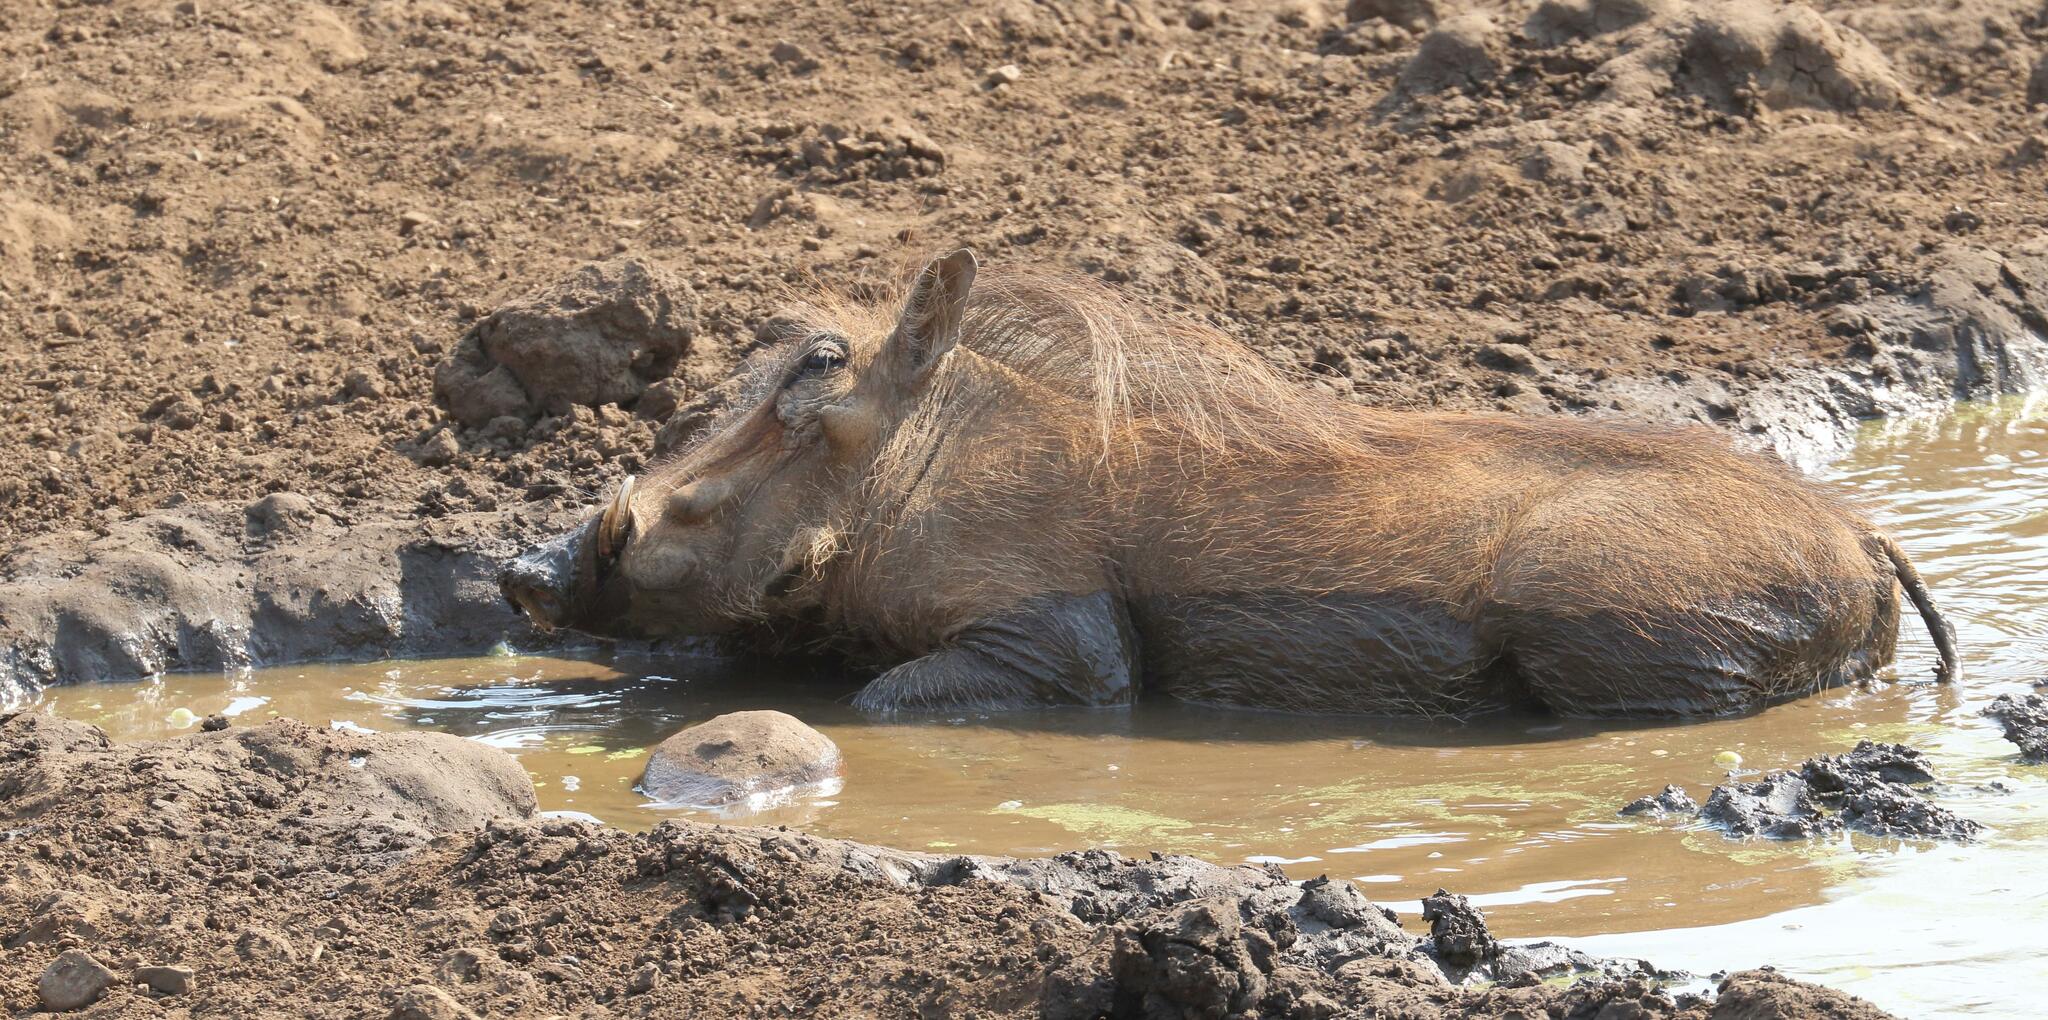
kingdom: Animalia
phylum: Chordata
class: Mammalia
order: Artiodactyla
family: Suidae
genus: Phacochoerus
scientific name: Phacochoerus africanus
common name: Common warthog
